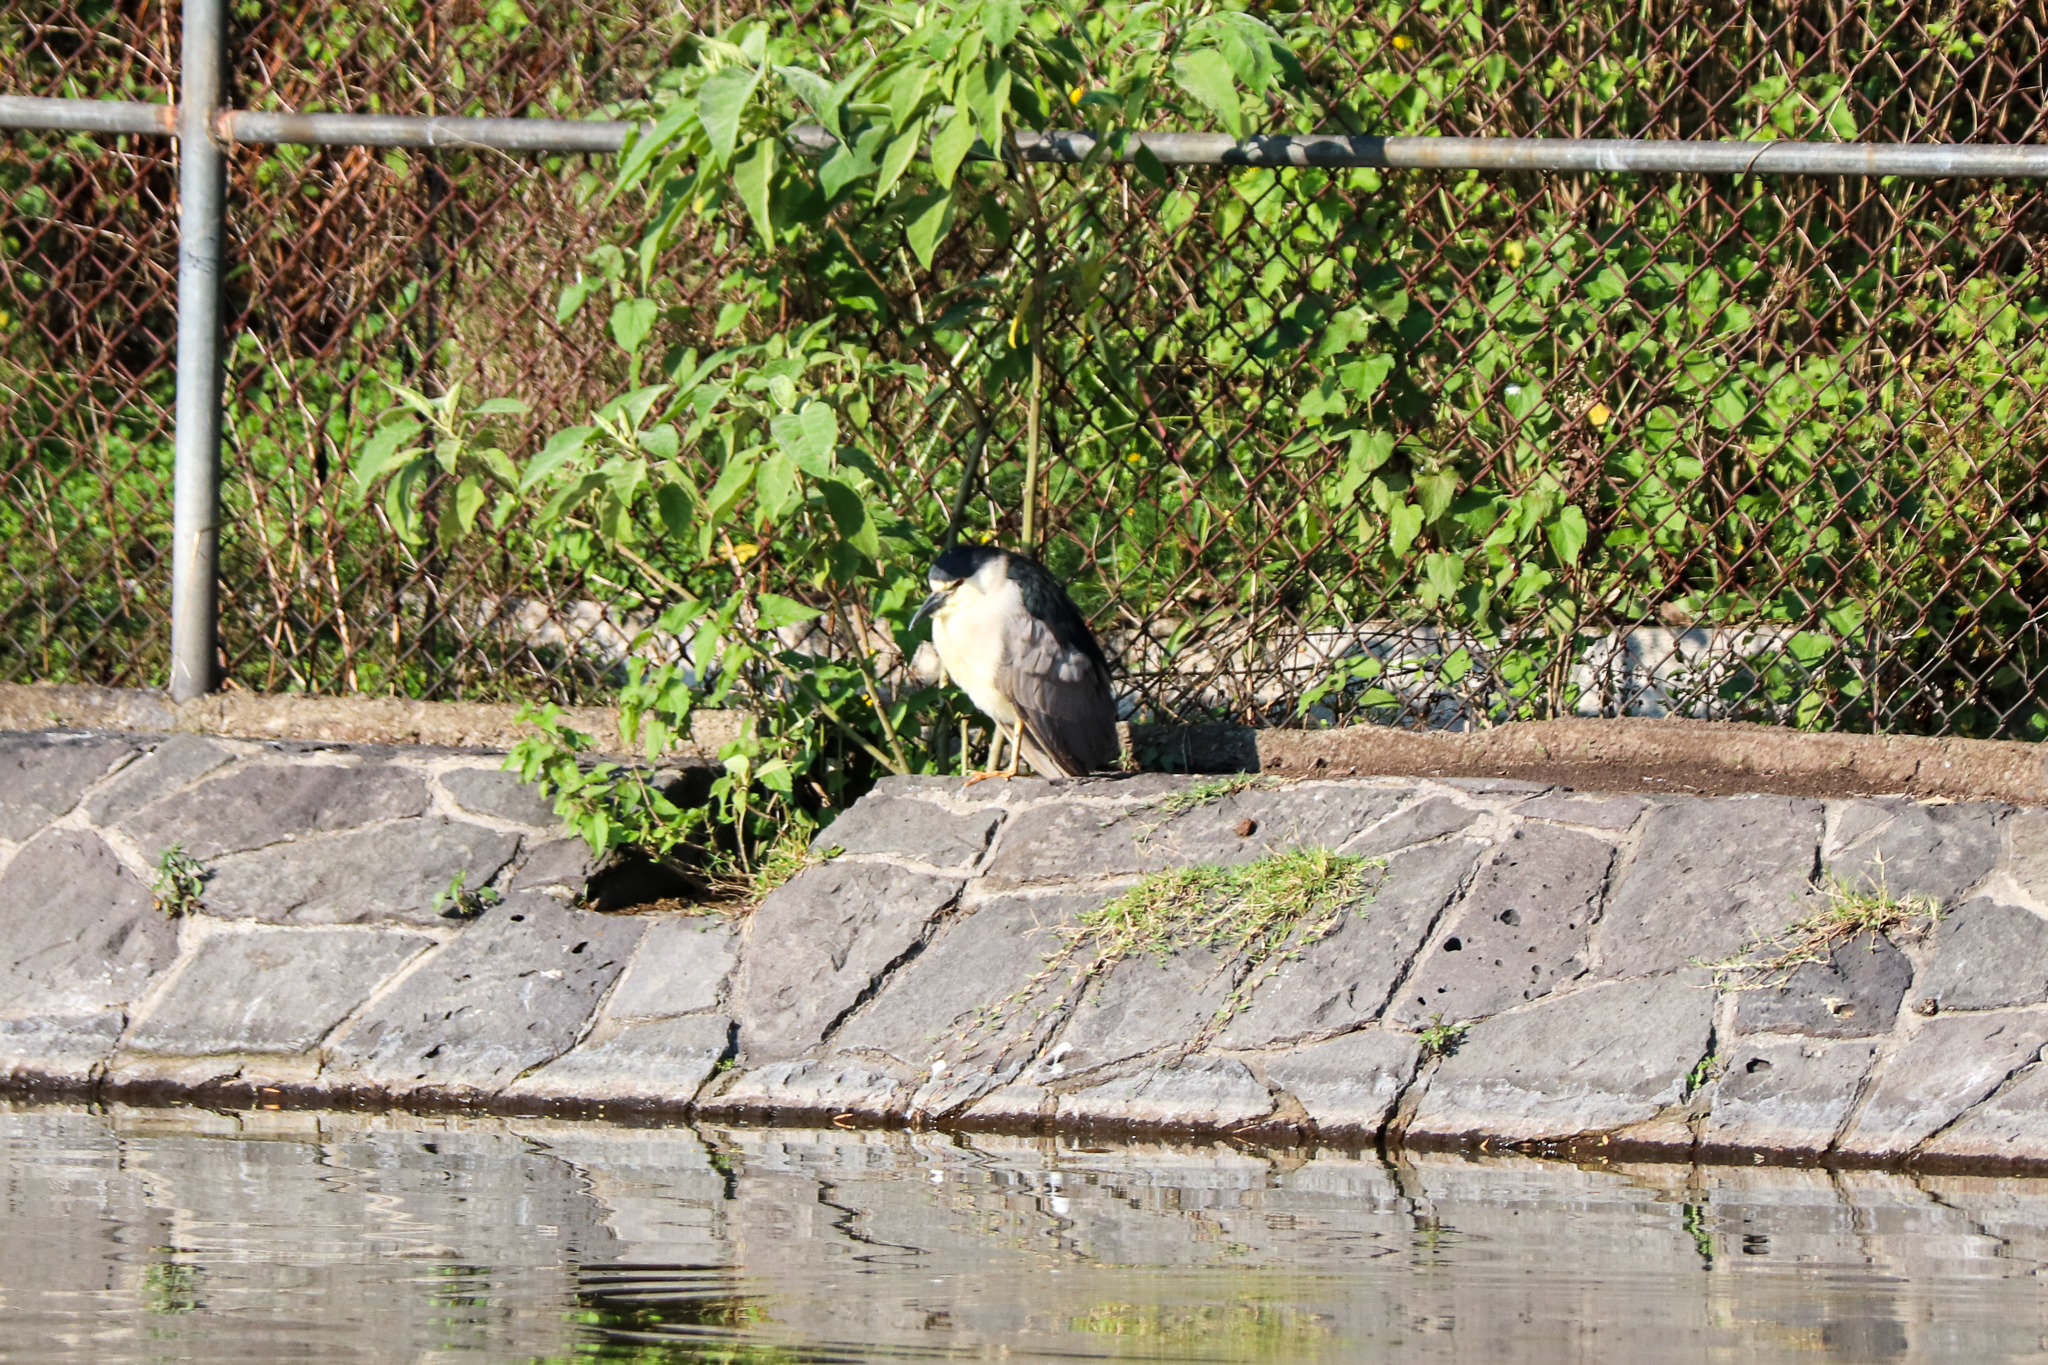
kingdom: Animalia
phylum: Chordata
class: Aves
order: Pelecaniformes
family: Ardeidae
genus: Nycticorax
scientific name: Nycticorax nycticorax
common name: Black-crowned night heron
